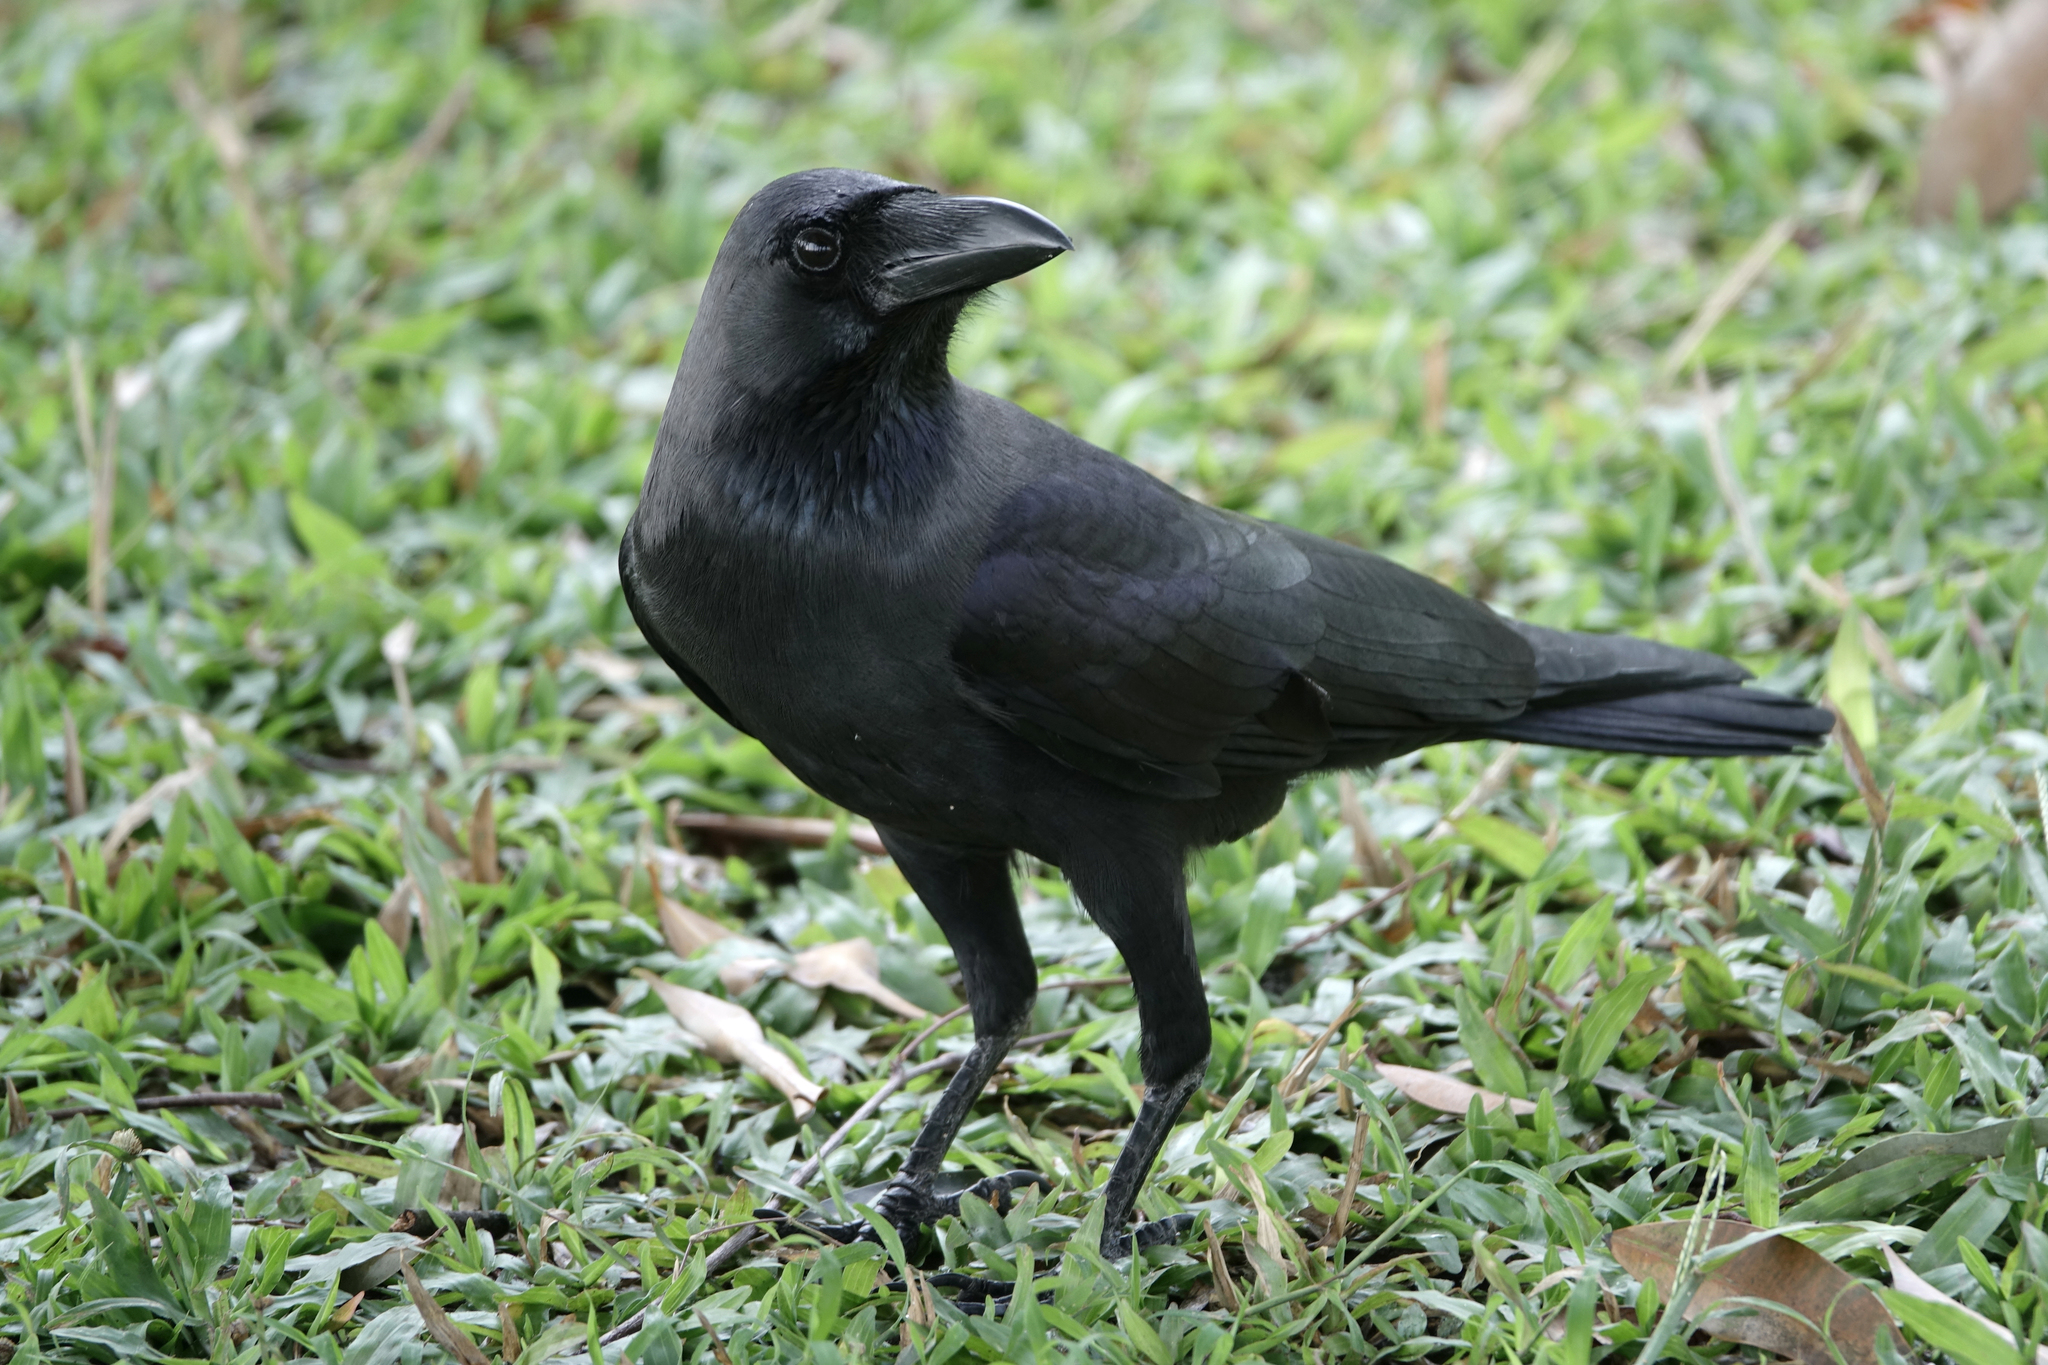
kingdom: Animalia
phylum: Chordata
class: Aves
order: Passeriformes
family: Corvidae
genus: Corvus
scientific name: Corvus macrorhynchos
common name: Large-billed crow
